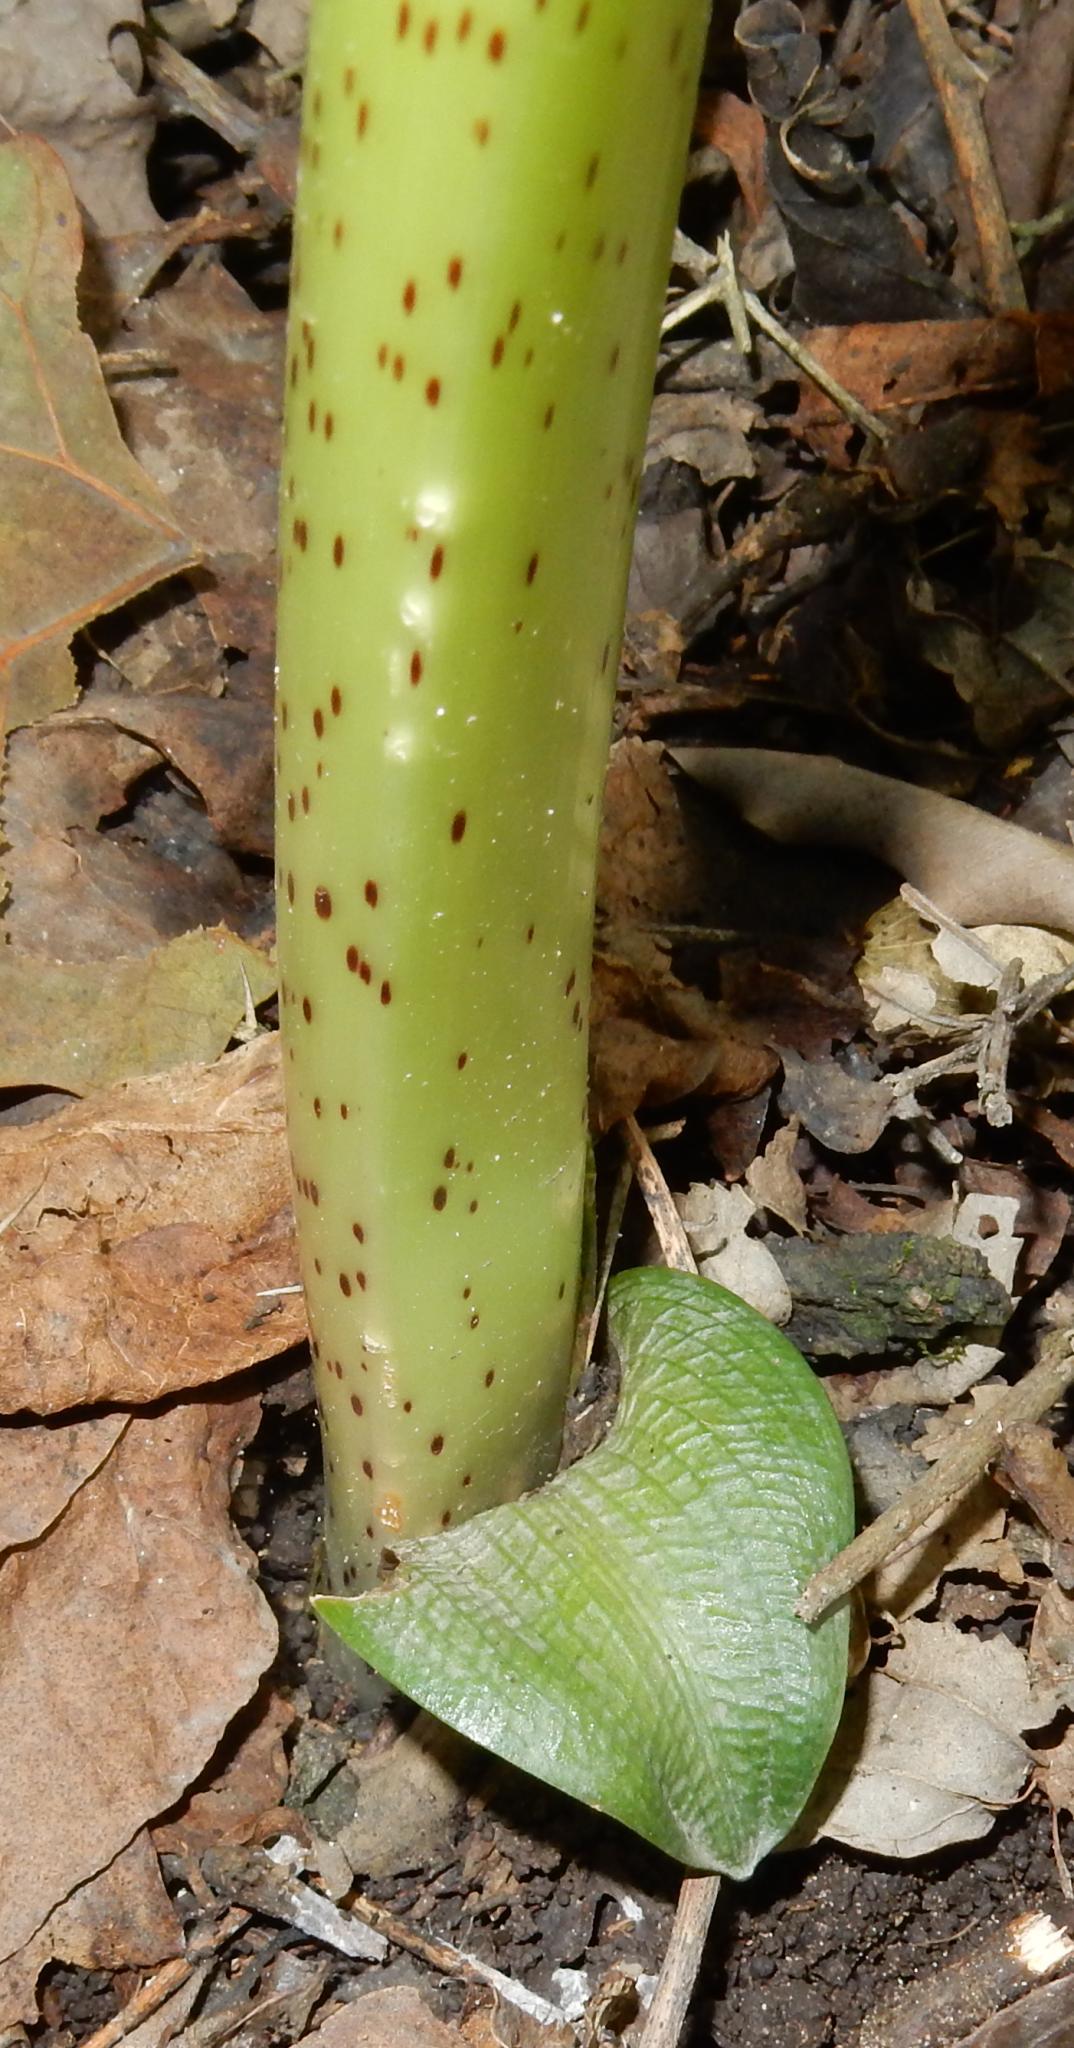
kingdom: Plantae
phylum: Tracheophyta
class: Liliopsida
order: Asparagales
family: Amaryllidaceae
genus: Scadoxus
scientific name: Scadoxus puniceus
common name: Royal-paintbrush
